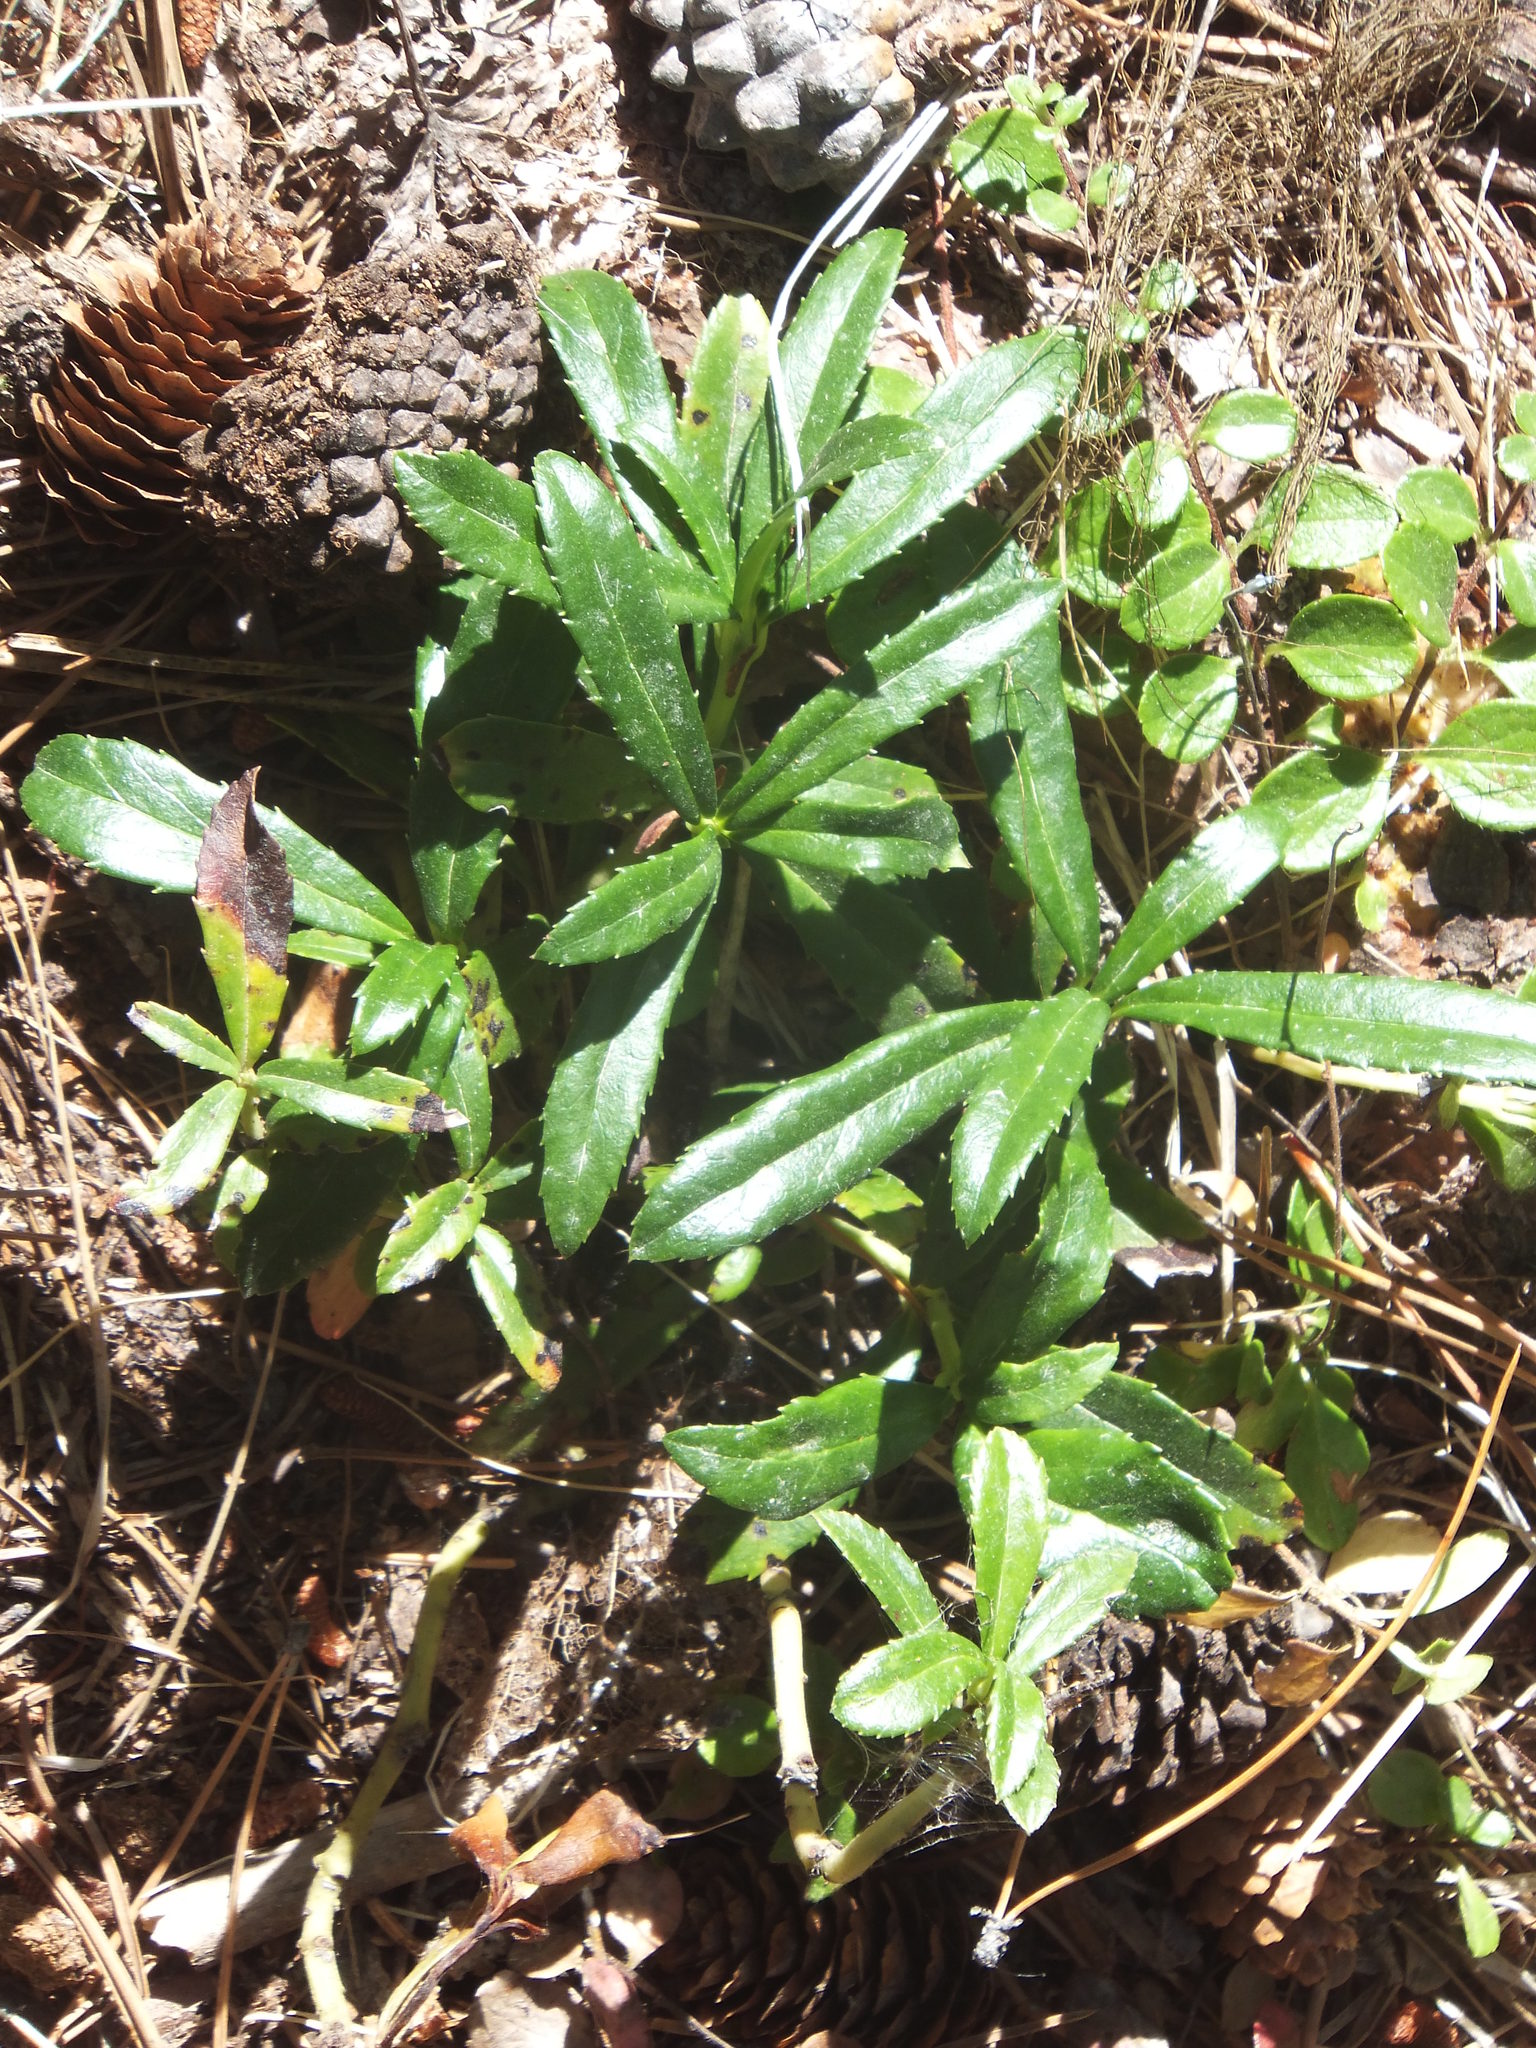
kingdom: Plantae
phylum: Tracheophyta
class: Magnoliopsida
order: Ericales
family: Ericaceae
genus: Chimaphila
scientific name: Chimaphila umbellata
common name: Pipsissewa
